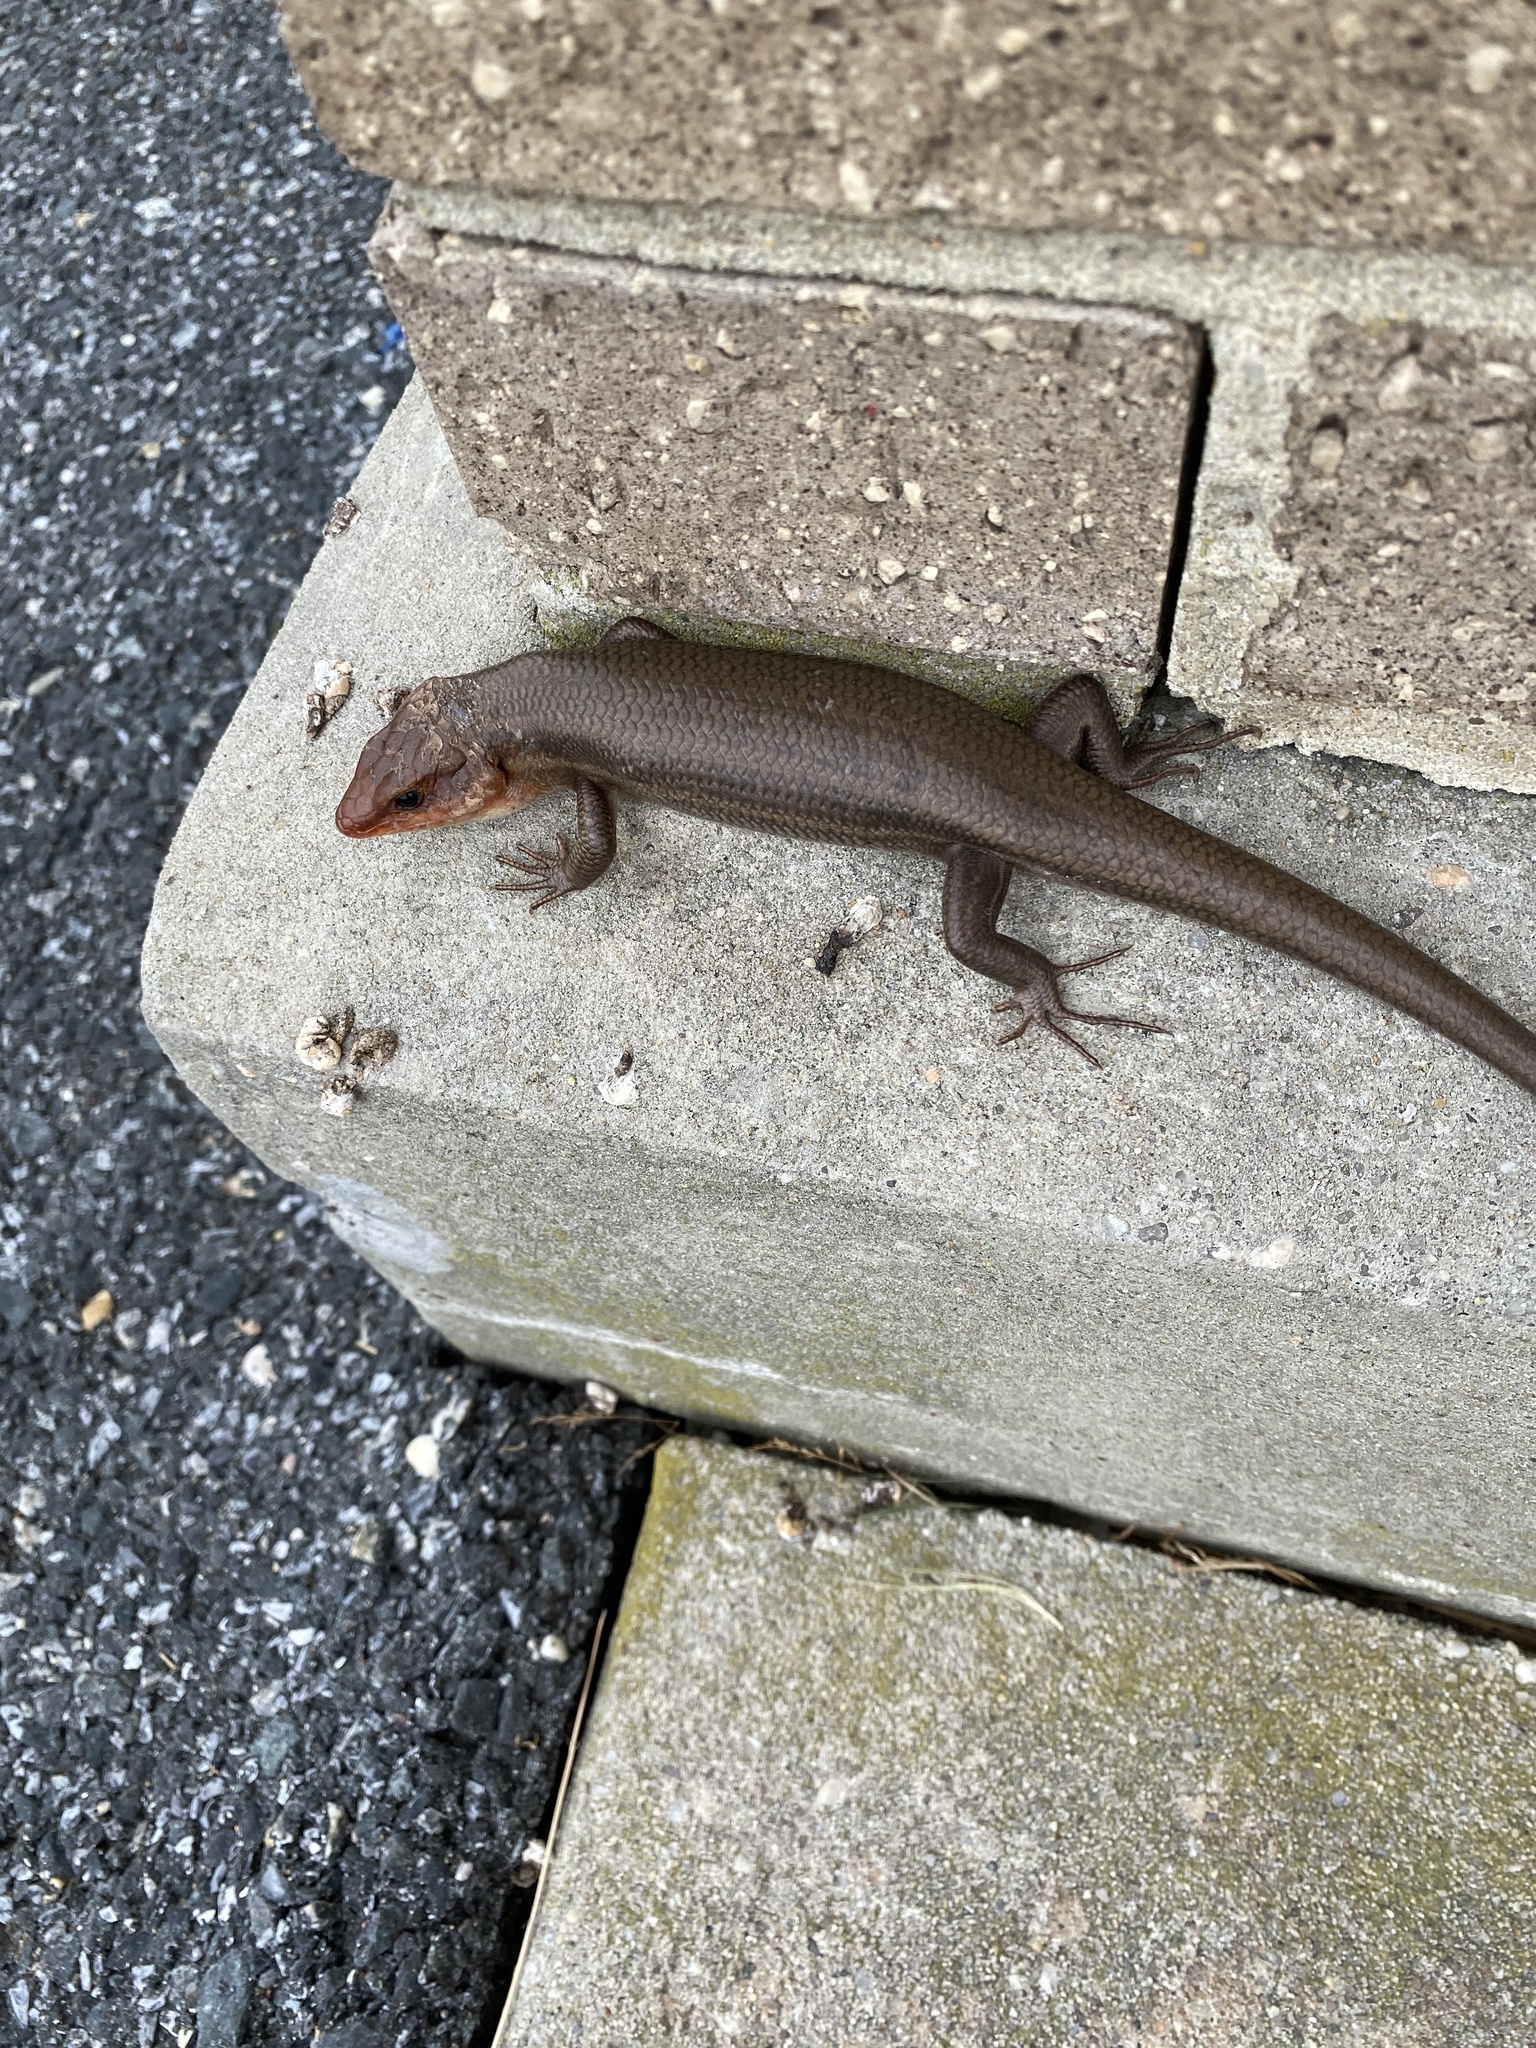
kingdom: Animalia
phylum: Chordata
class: Squamata
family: Scincidae
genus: Plestiodon
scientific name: Plestiodon fasciatus
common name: Five-lined skink
